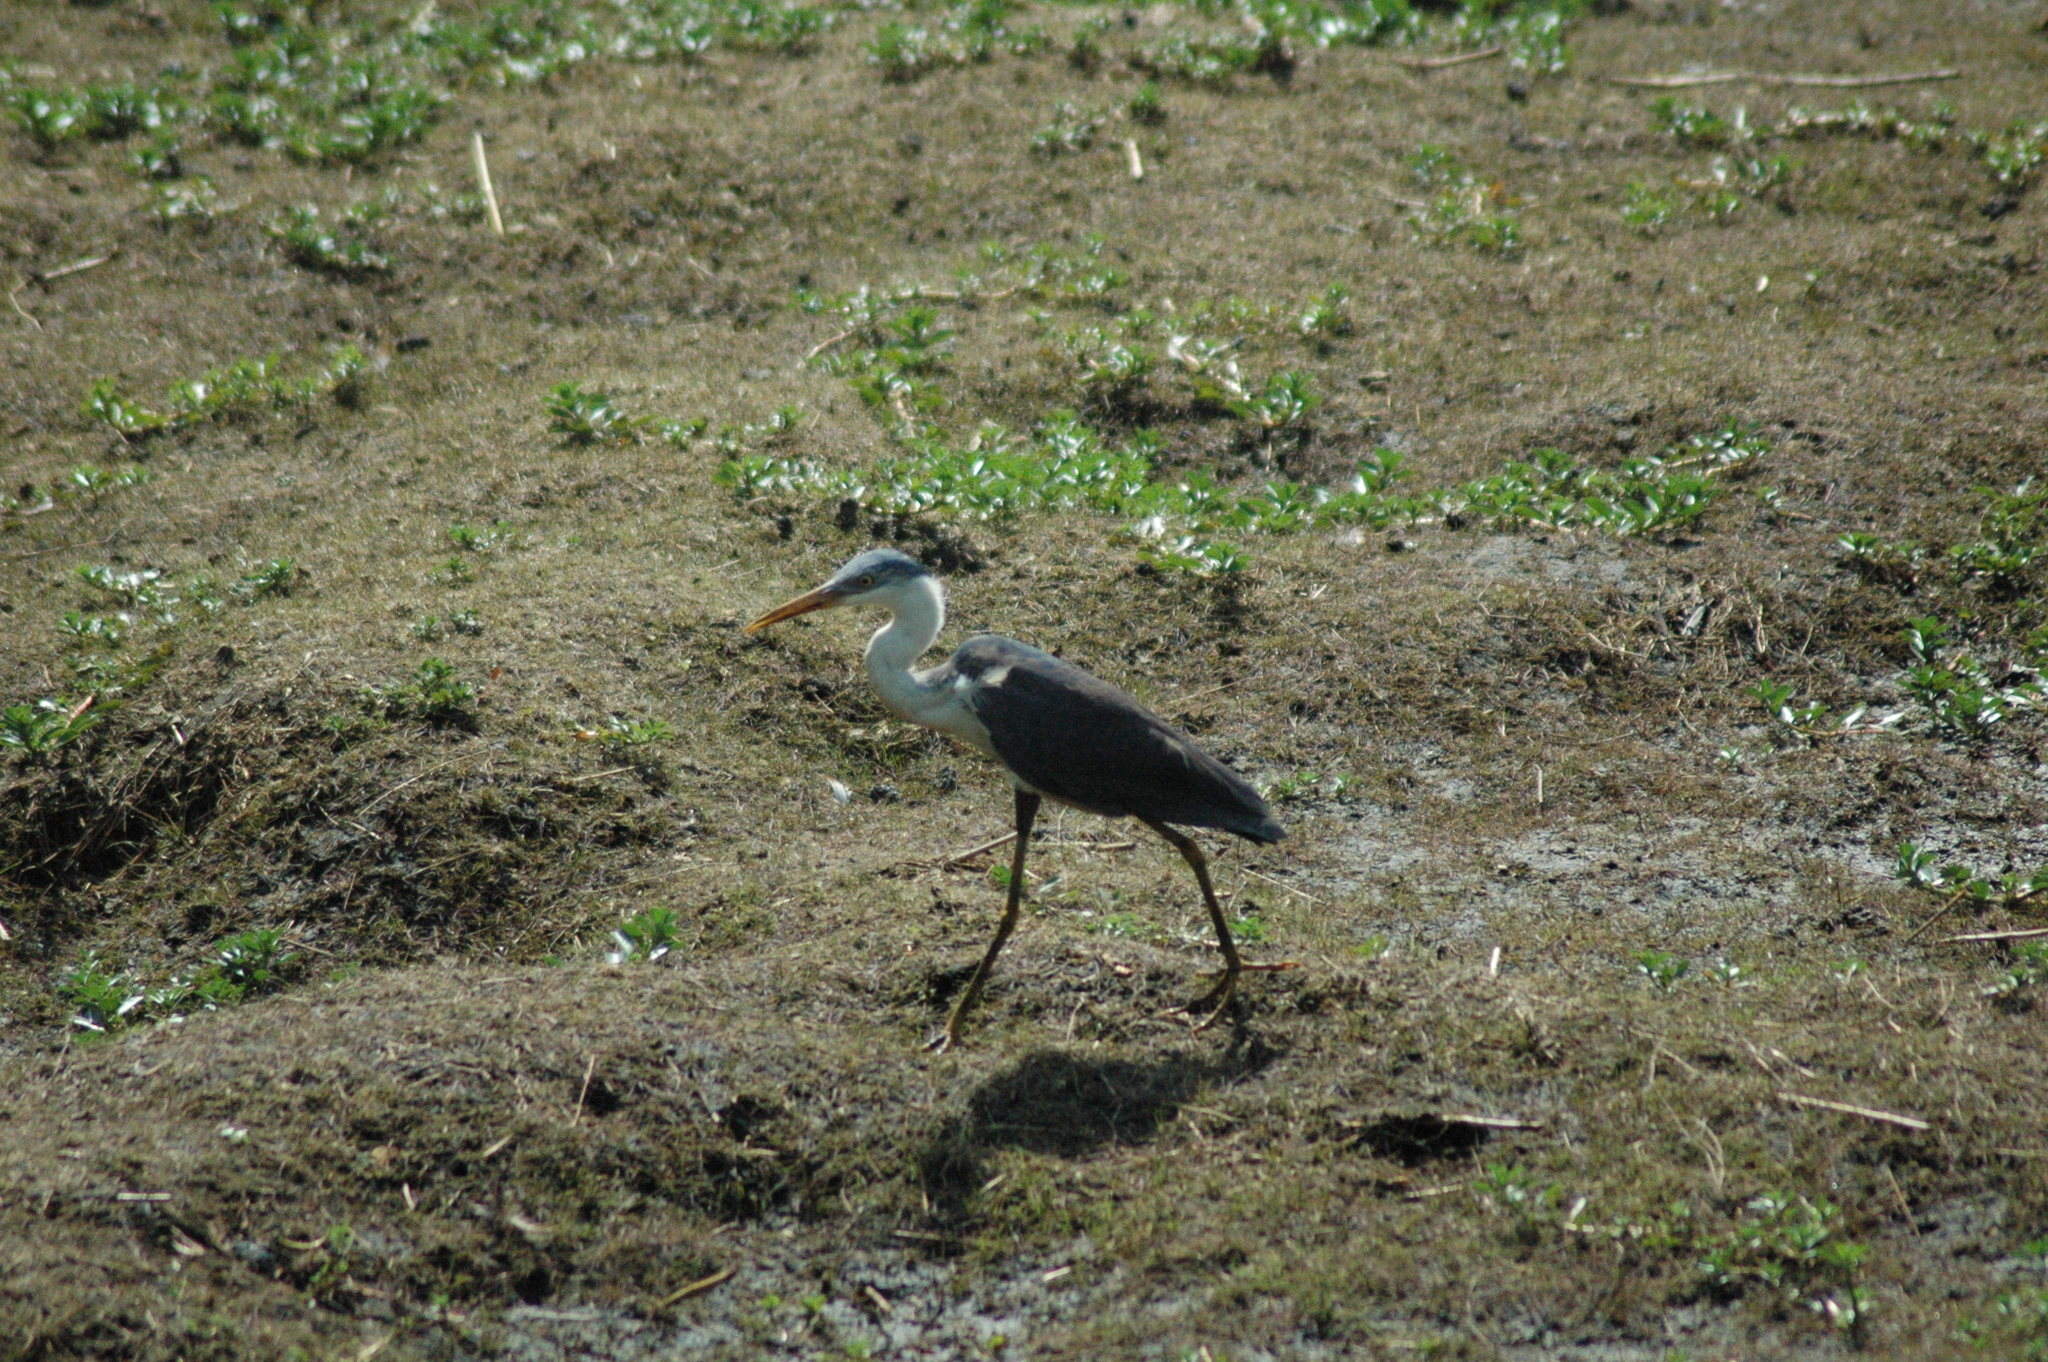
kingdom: Animalia
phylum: Chordata
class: Aves
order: Pelecaniformes
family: Ardeidae
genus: Egretta
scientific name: Egretta picata
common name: Pied heron
